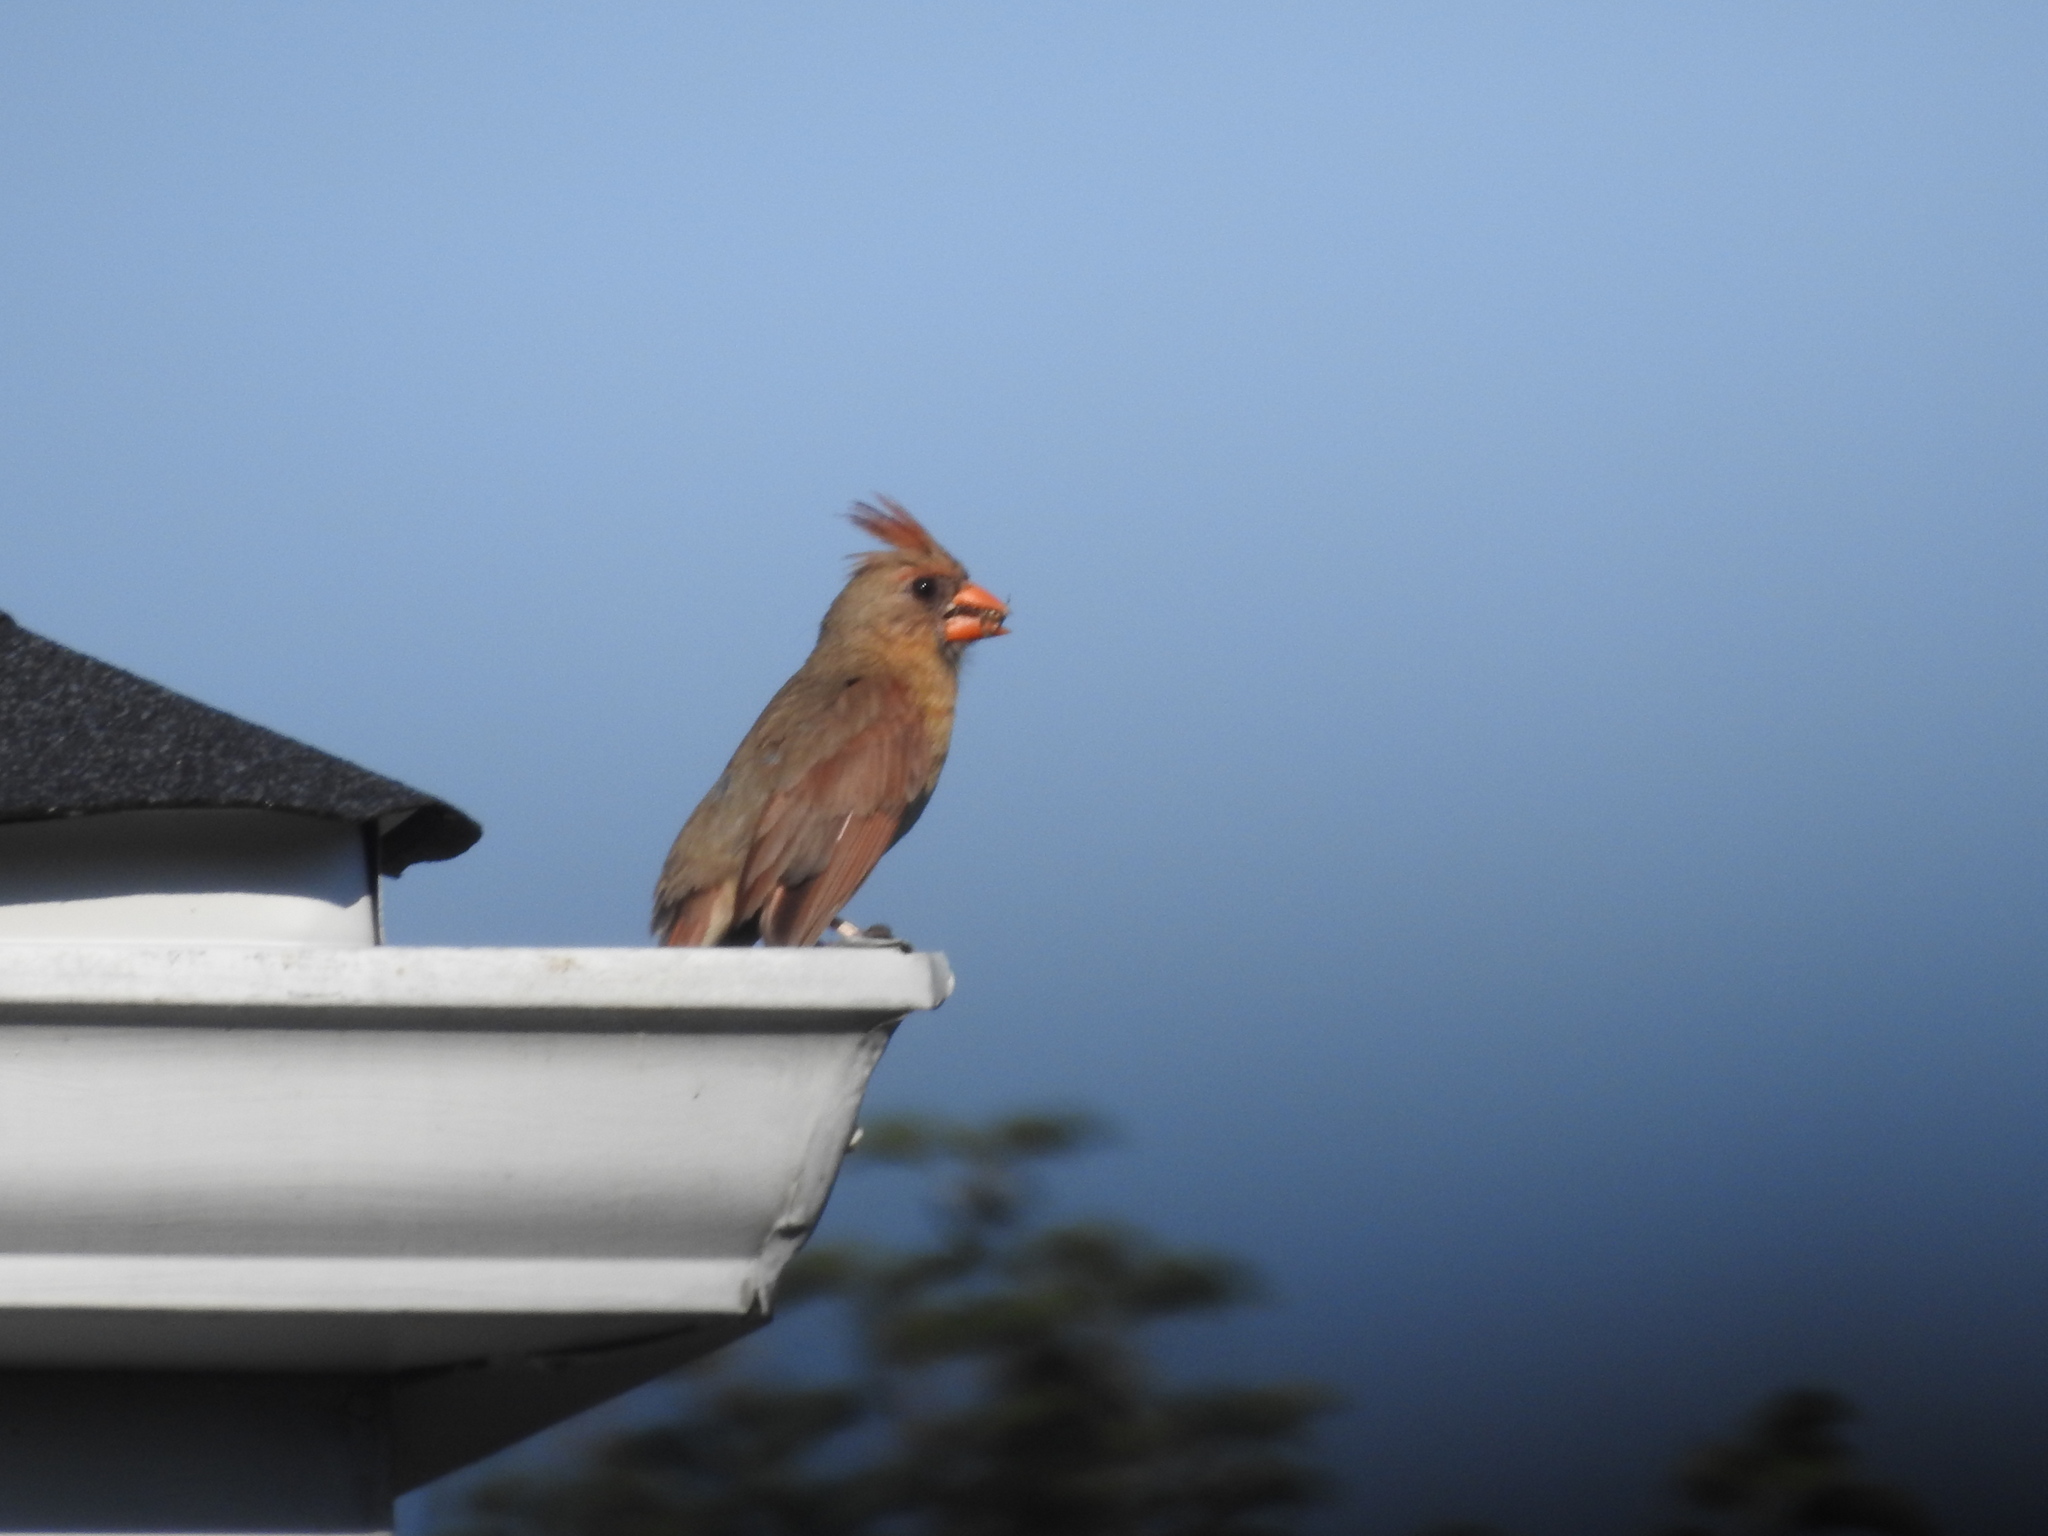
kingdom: Animalia
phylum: Chordata
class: Aves
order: Passeriformes
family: Cardinalidae
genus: Cardinalis
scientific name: Cardinalis cardinalis
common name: Northern cardinal
